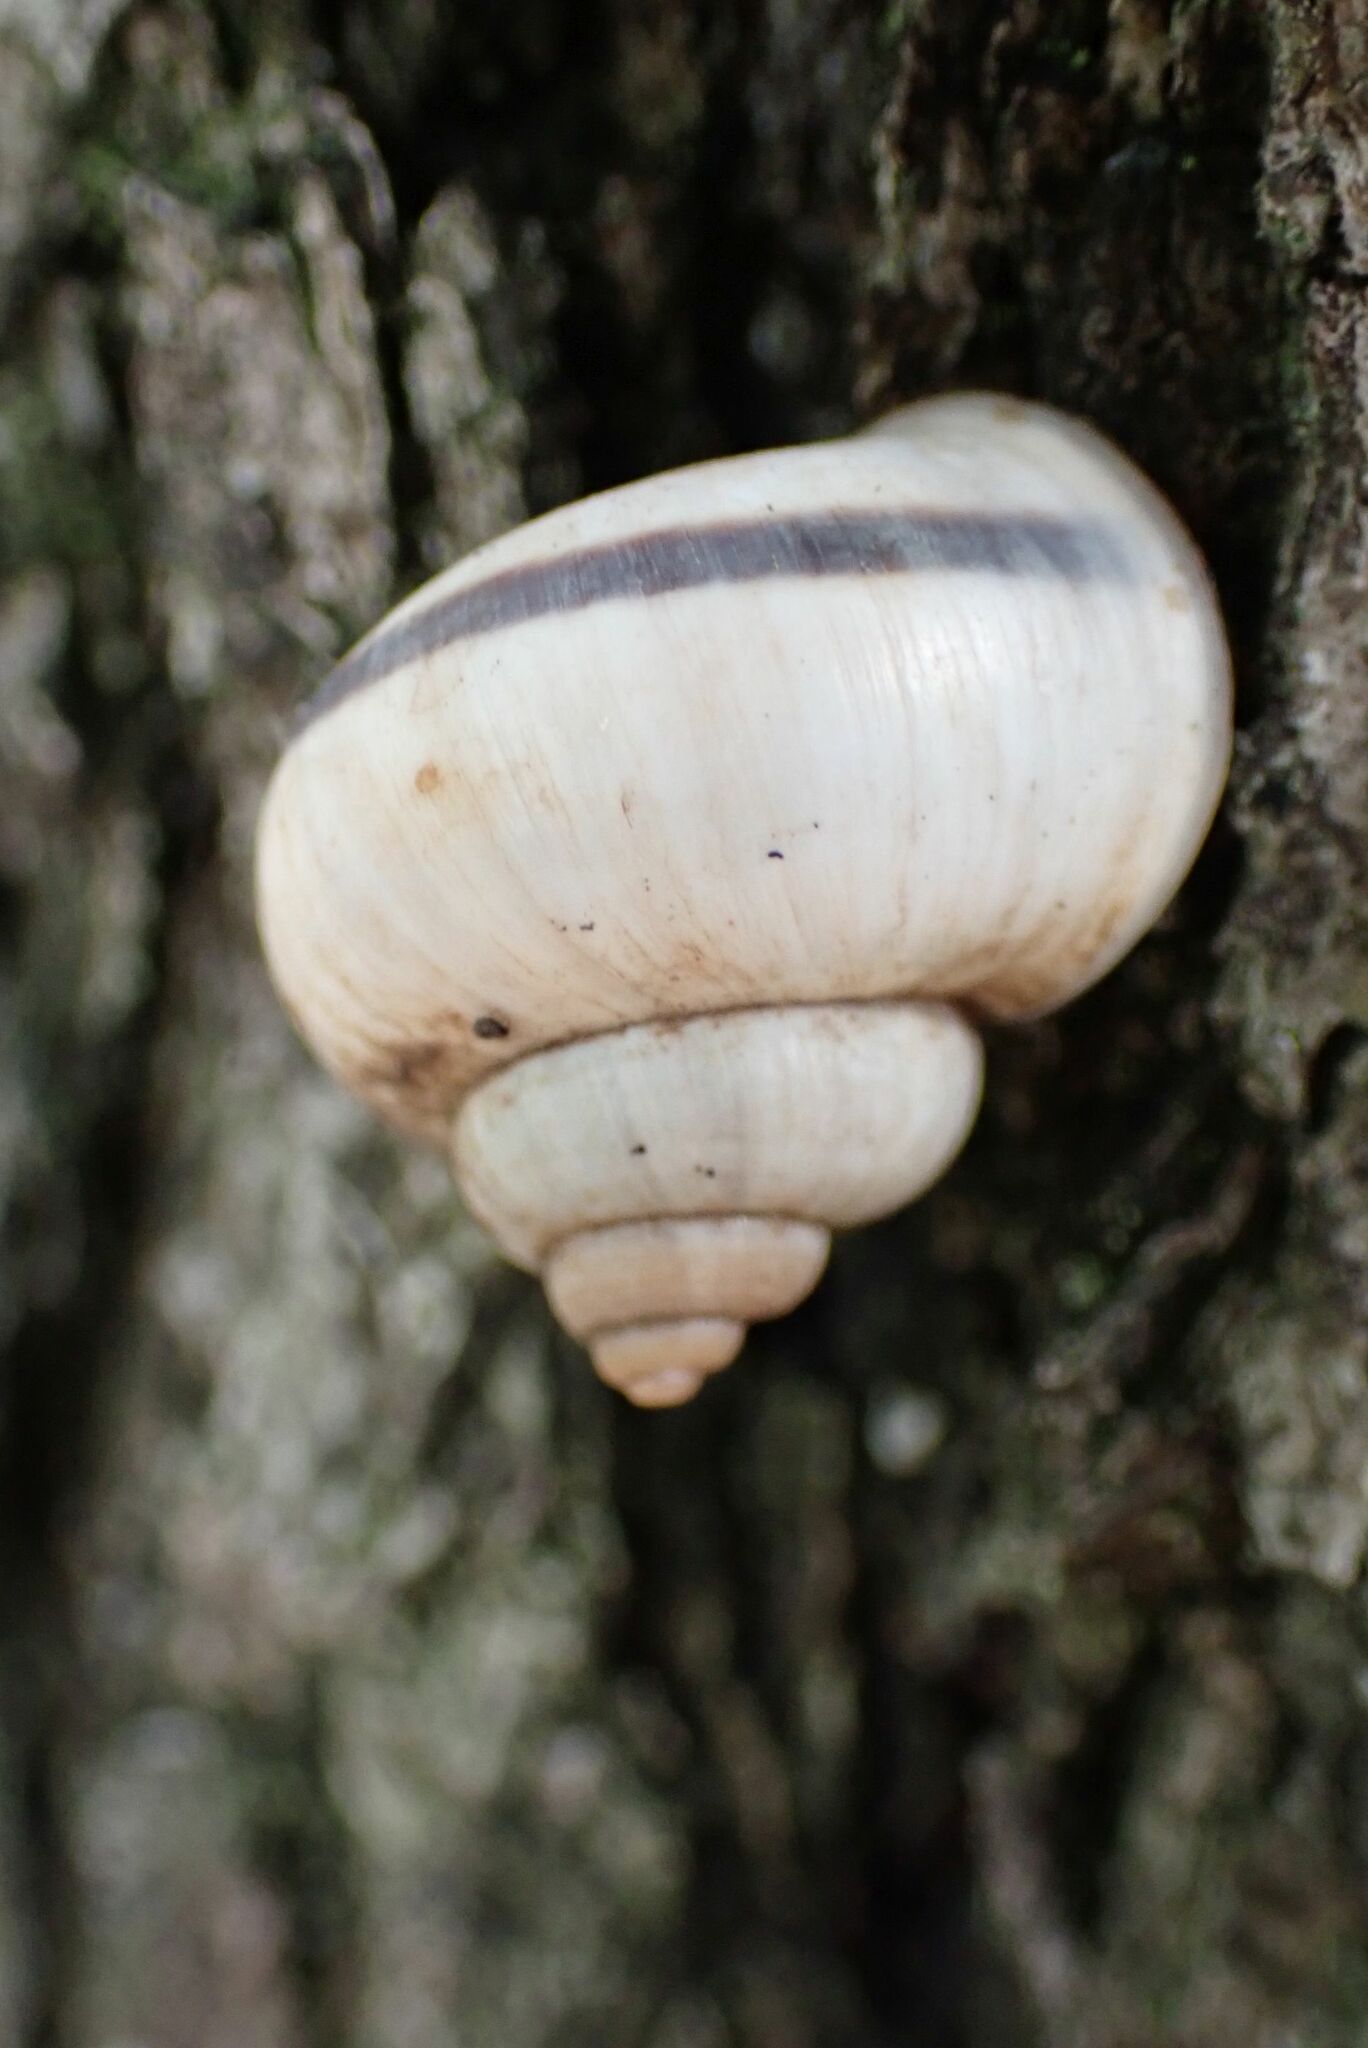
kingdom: Animalia
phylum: Mollusca
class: Gastropoda
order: Littorinimorpha
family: Pomatiidae
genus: Tropidophora
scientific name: Tropidophora ligata
